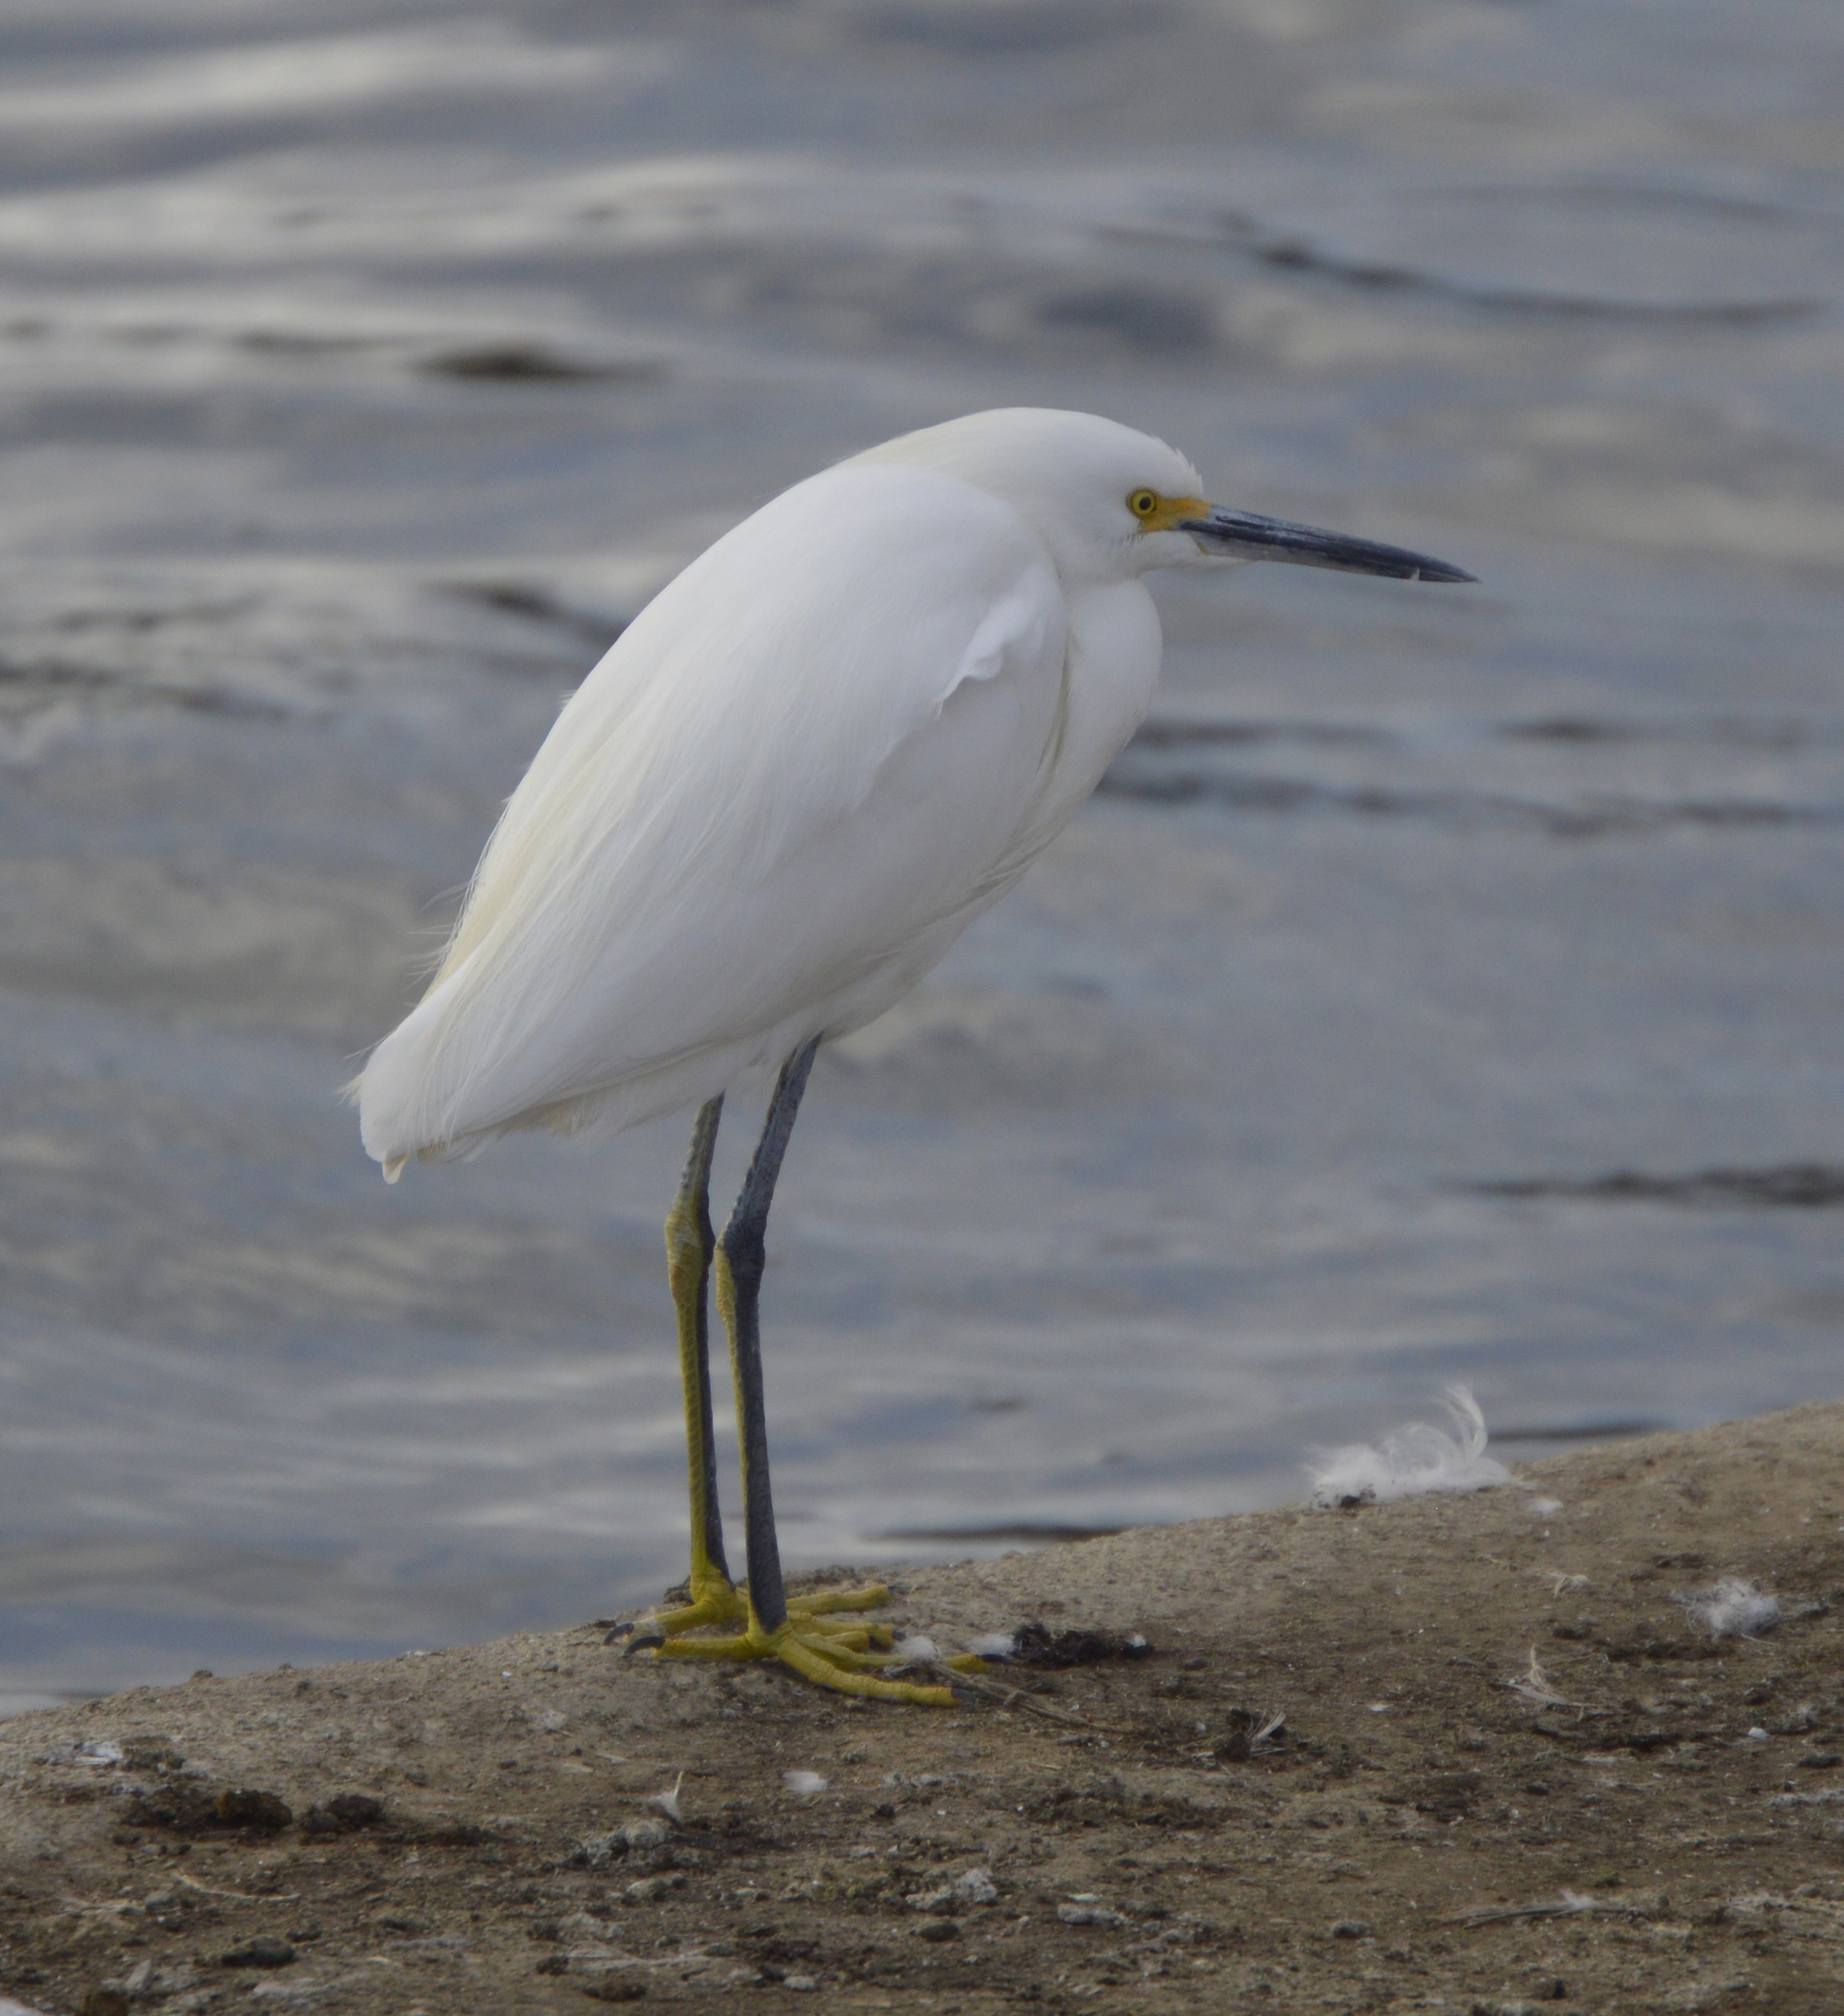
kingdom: Animalia
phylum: Chordata
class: Aves
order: Pelecaniformes
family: Ardeidae
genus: Egretta
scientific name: Egretta thula
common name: Snowy egret
